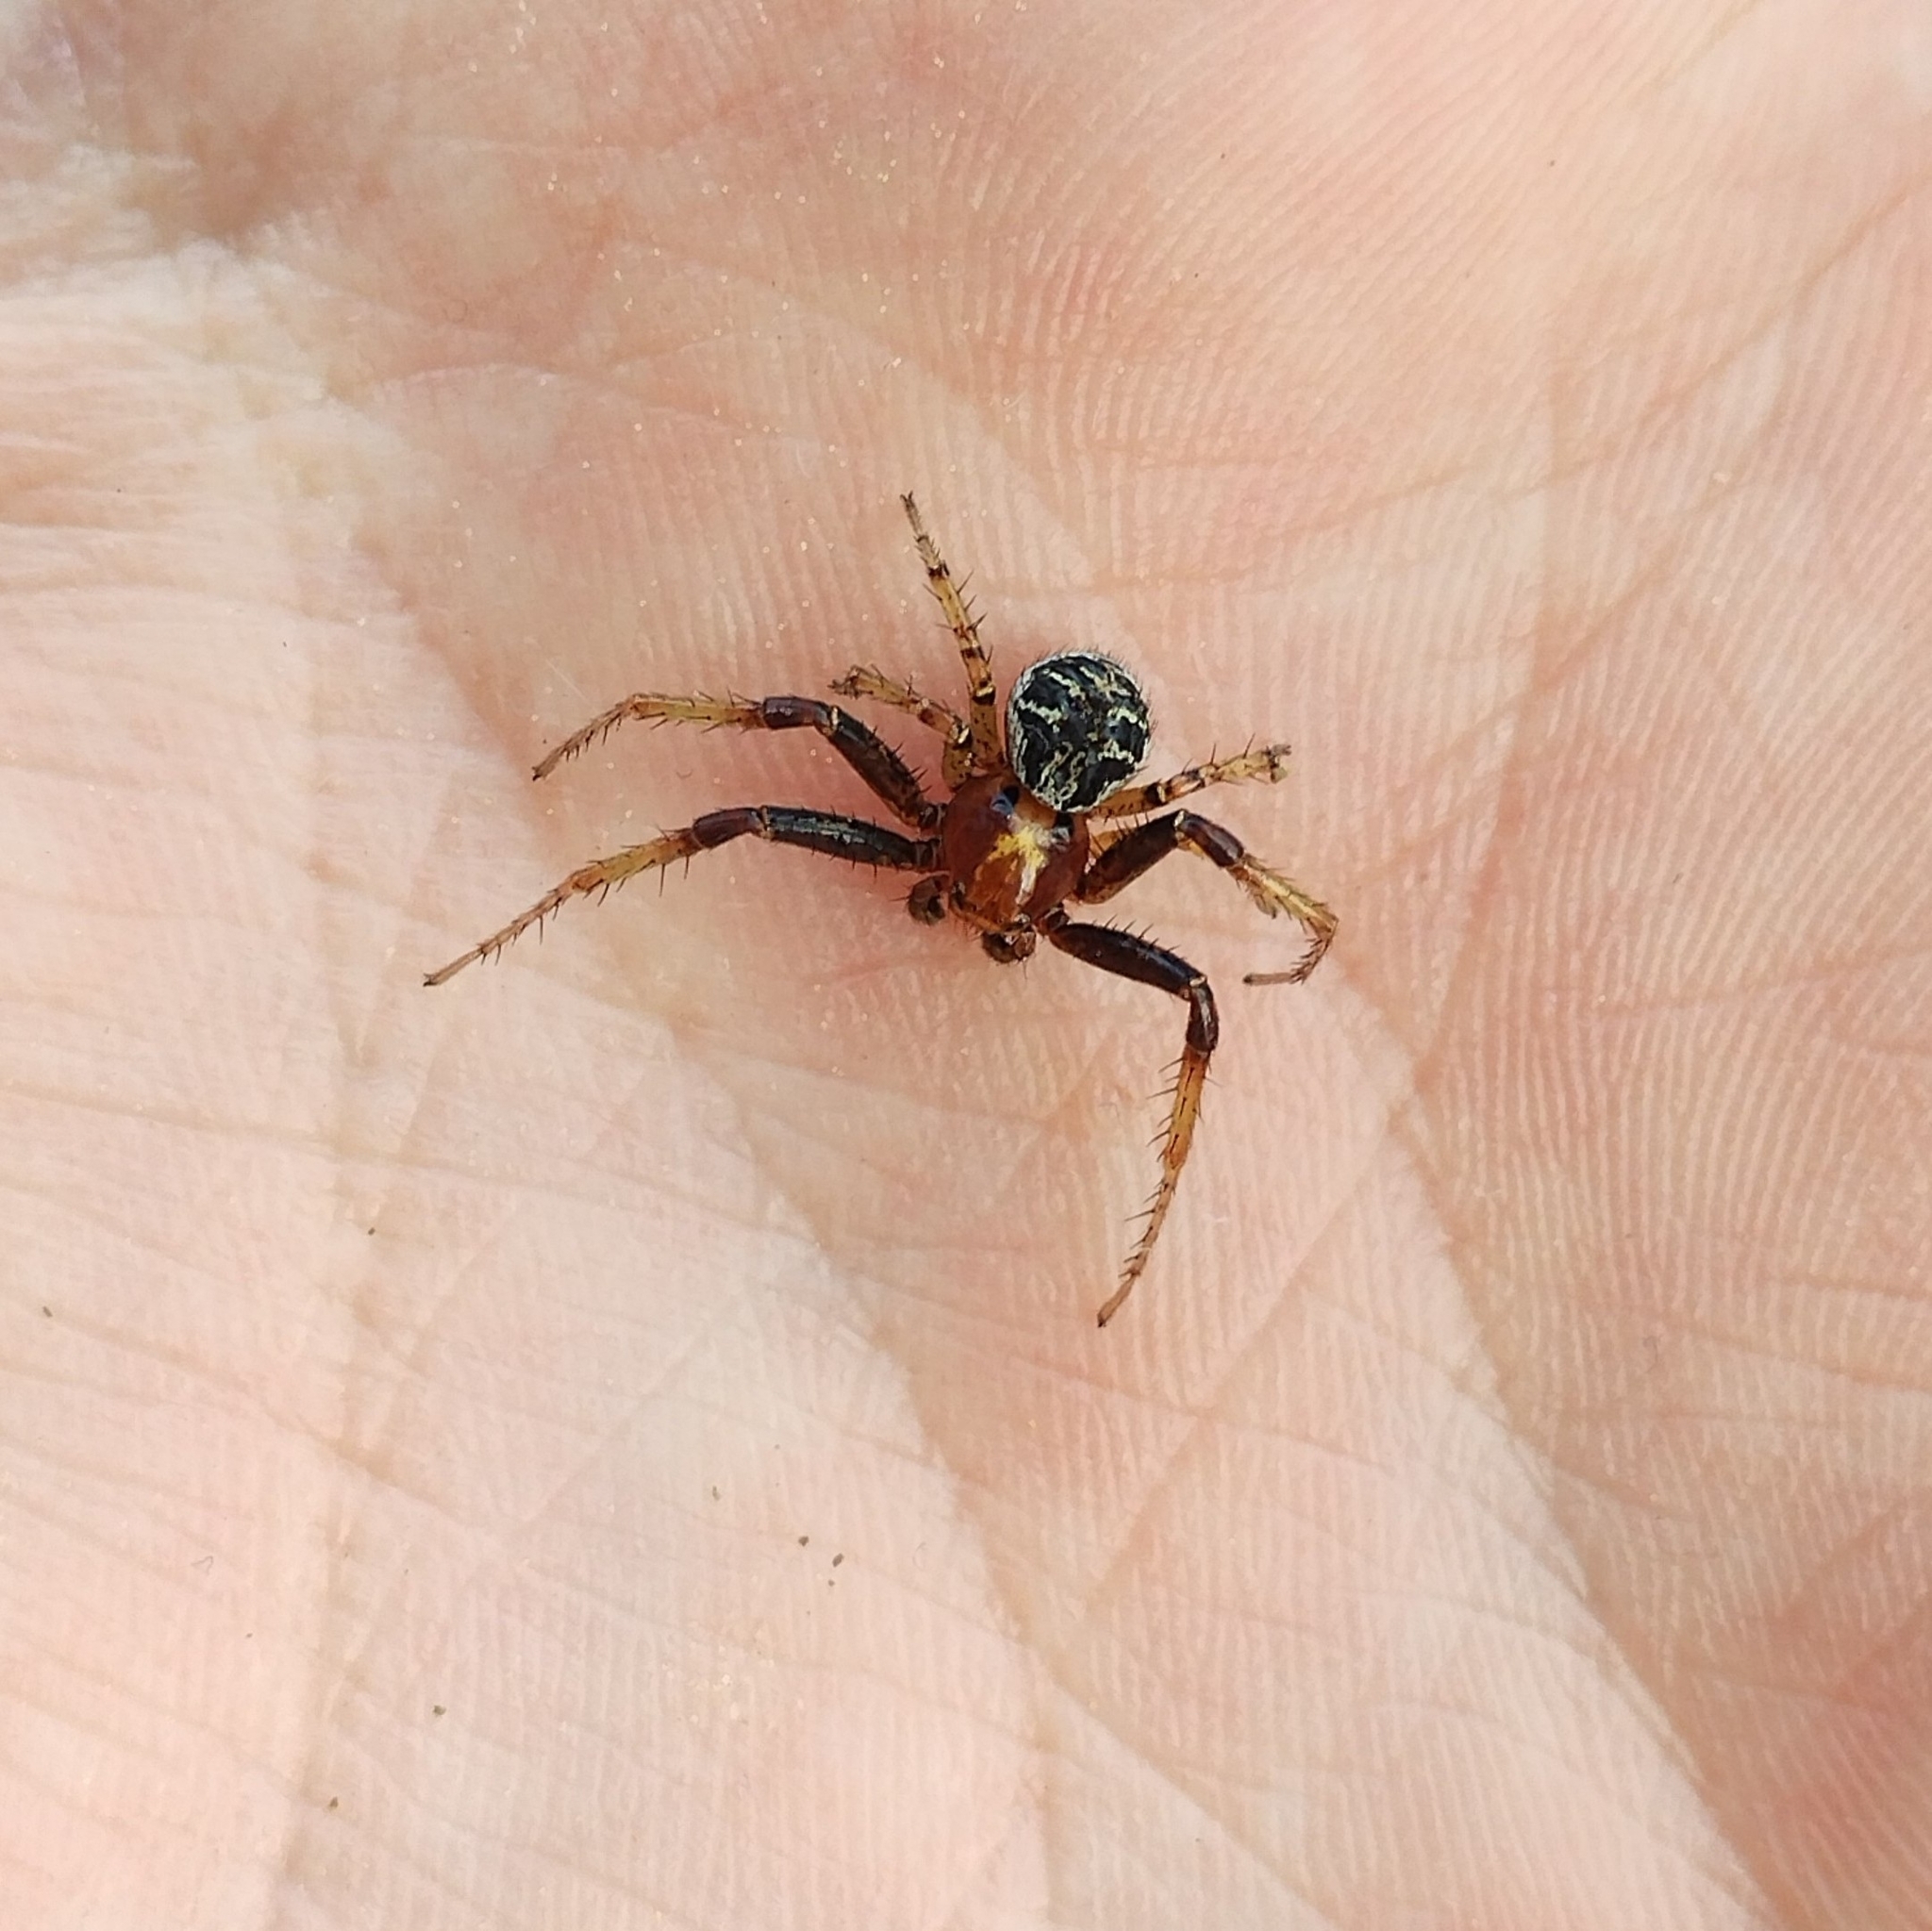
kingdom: Animalia
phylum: Arthropoda
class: Arachnida
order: Araneae
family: Thomisidae
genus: Xysticus
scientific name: Xysticus lanio
